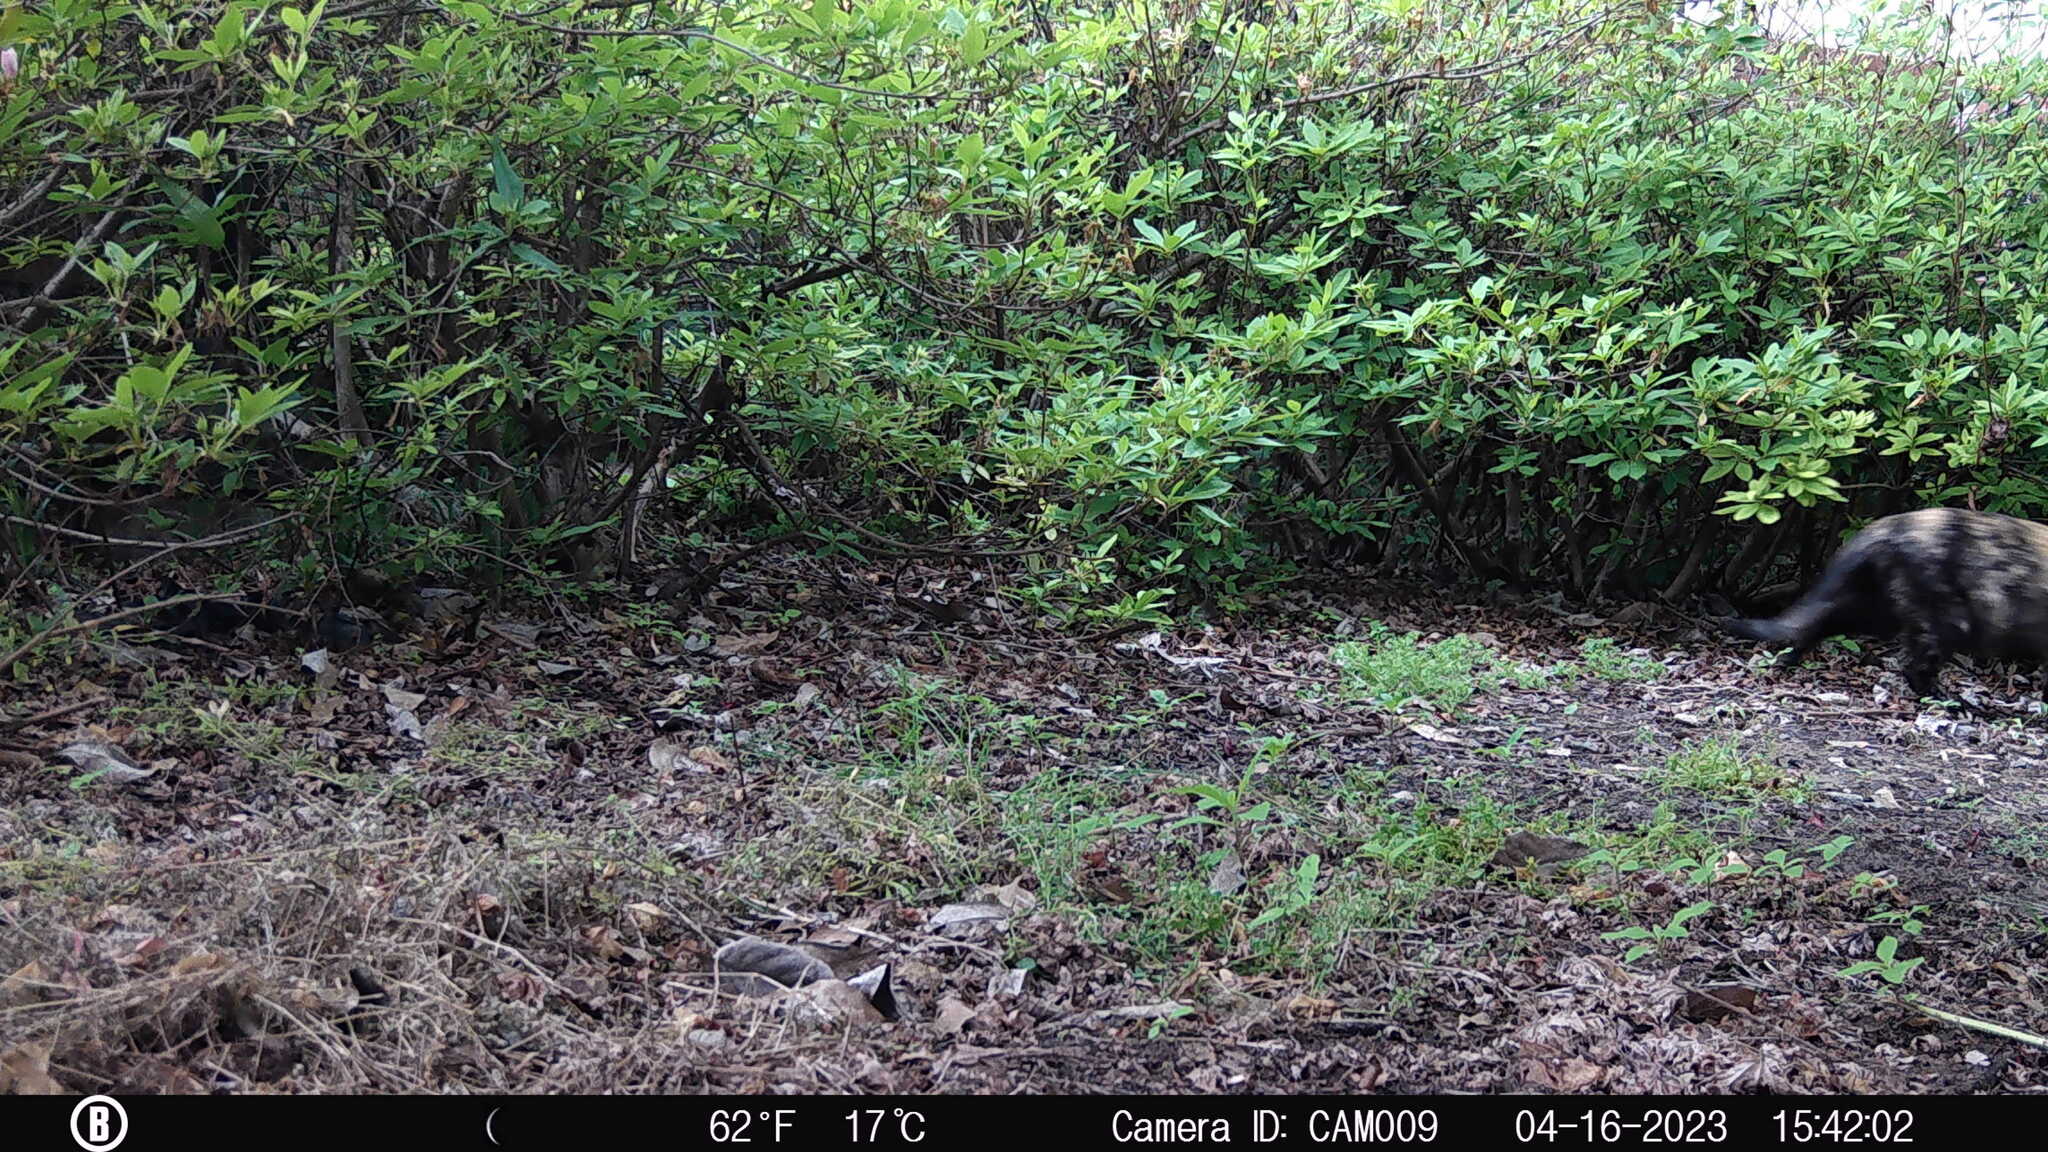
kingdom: Animalia
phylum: Chordata
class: Mammalia
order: Carnivora
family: Felidae
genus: Felis
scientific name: Felis catus
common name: Domestic cat
